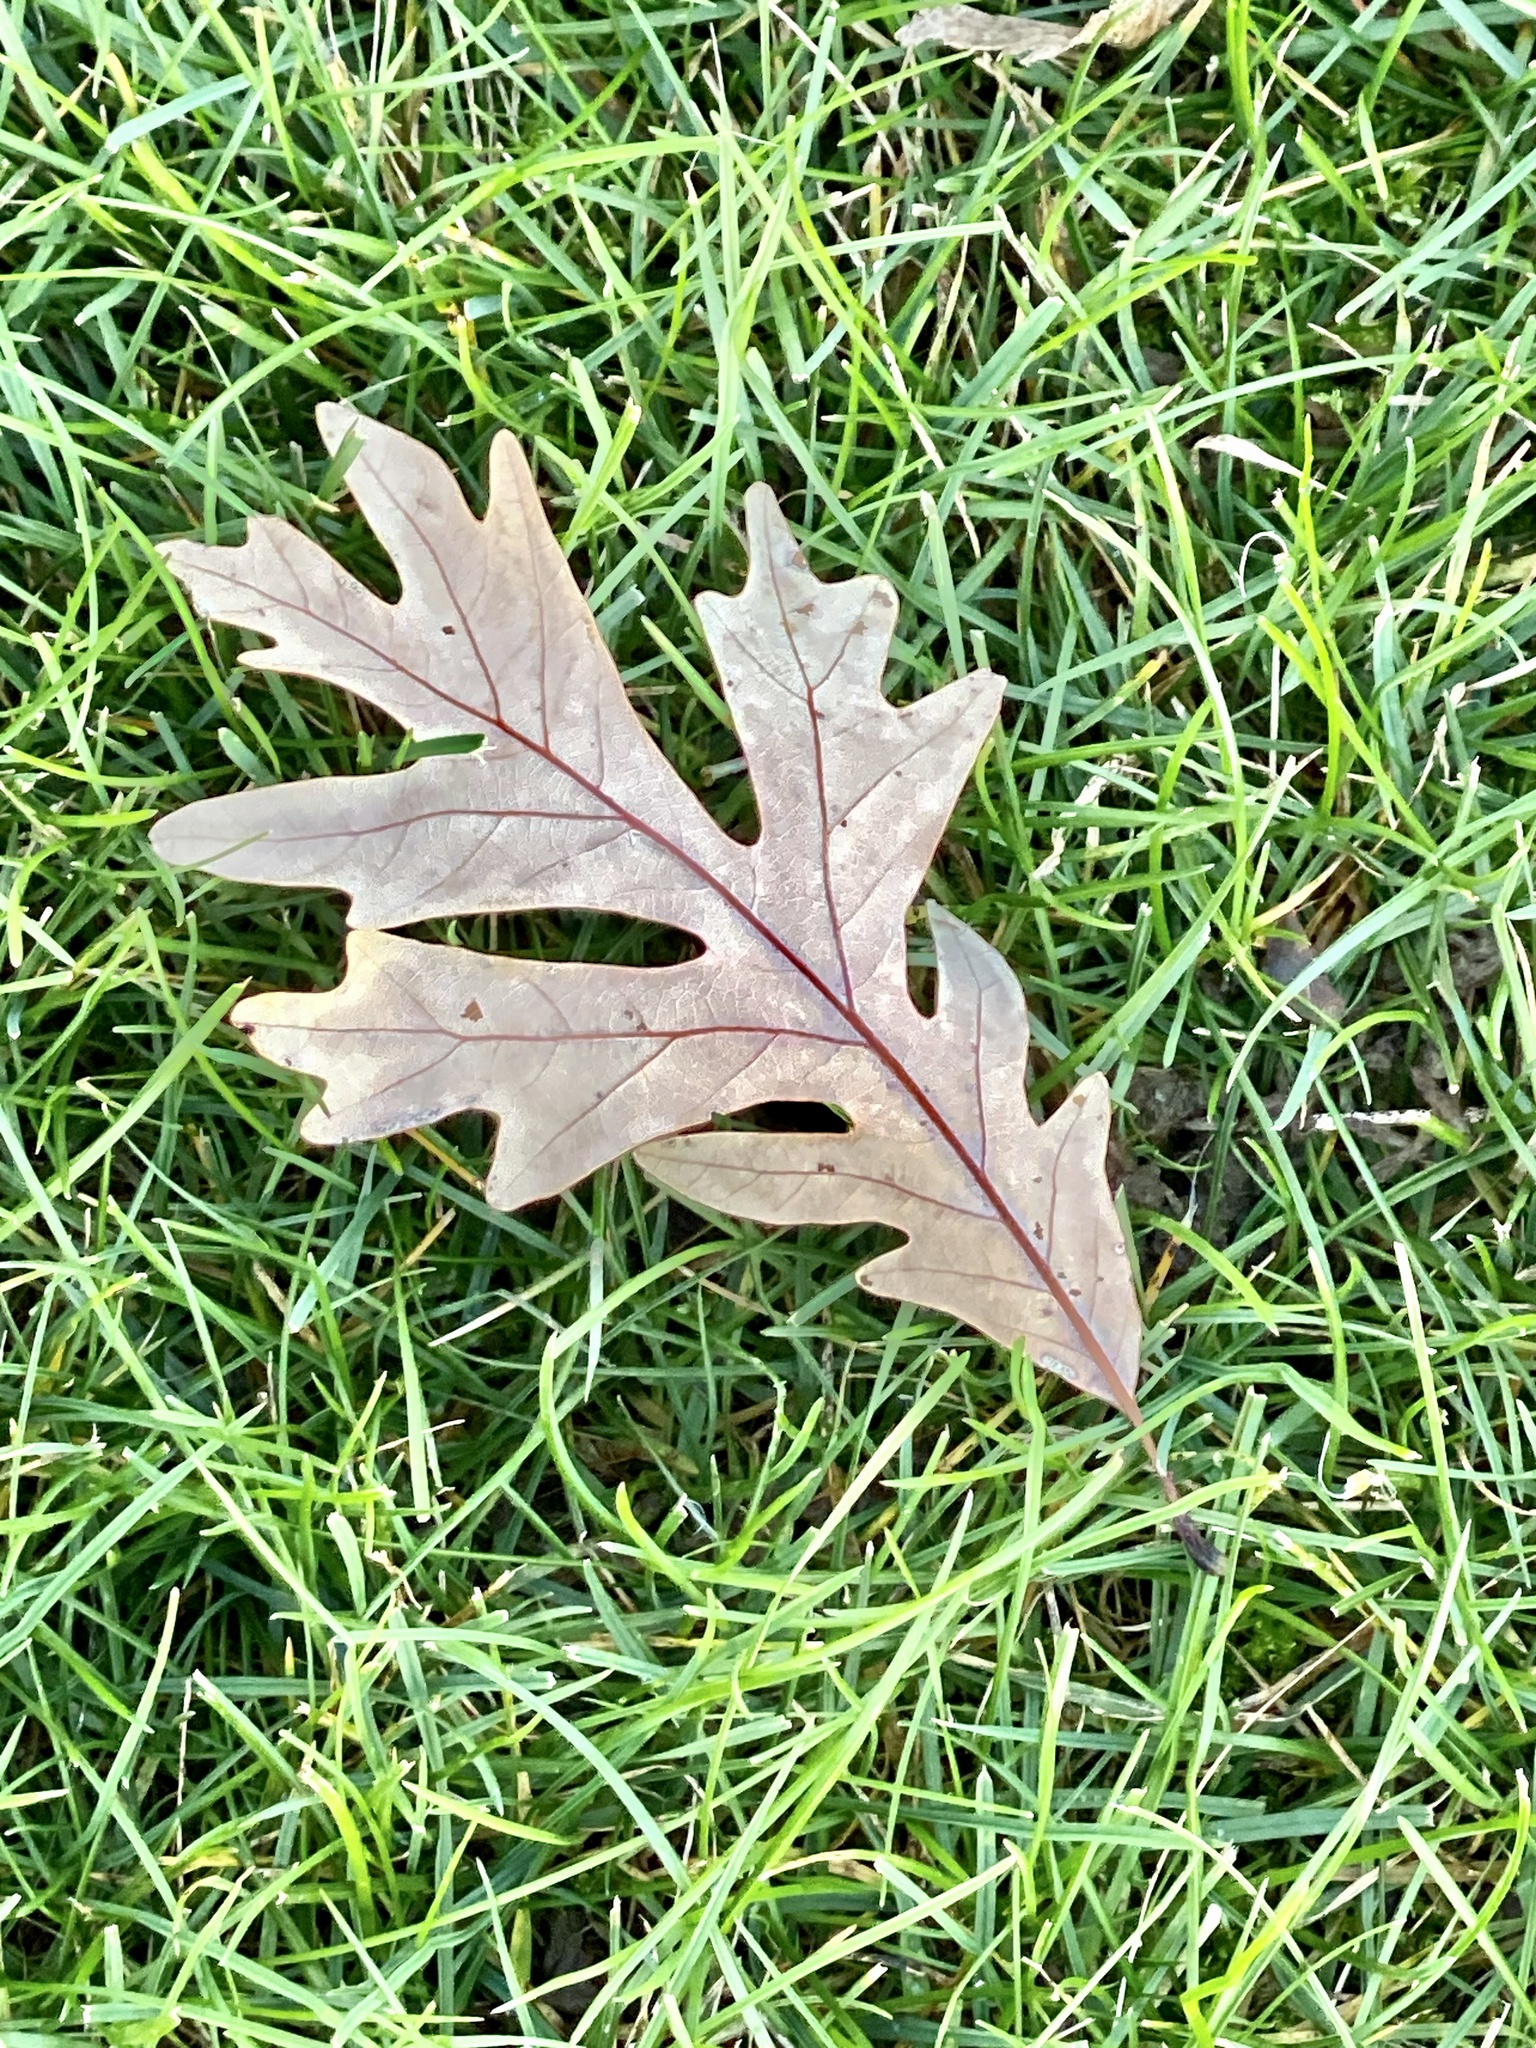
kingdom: Plantae
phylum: Tracheophyta
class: Magnoliopsida
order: Fagales
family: Fagaceae
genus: Quercus
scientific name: Quercus alba
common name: White oak
